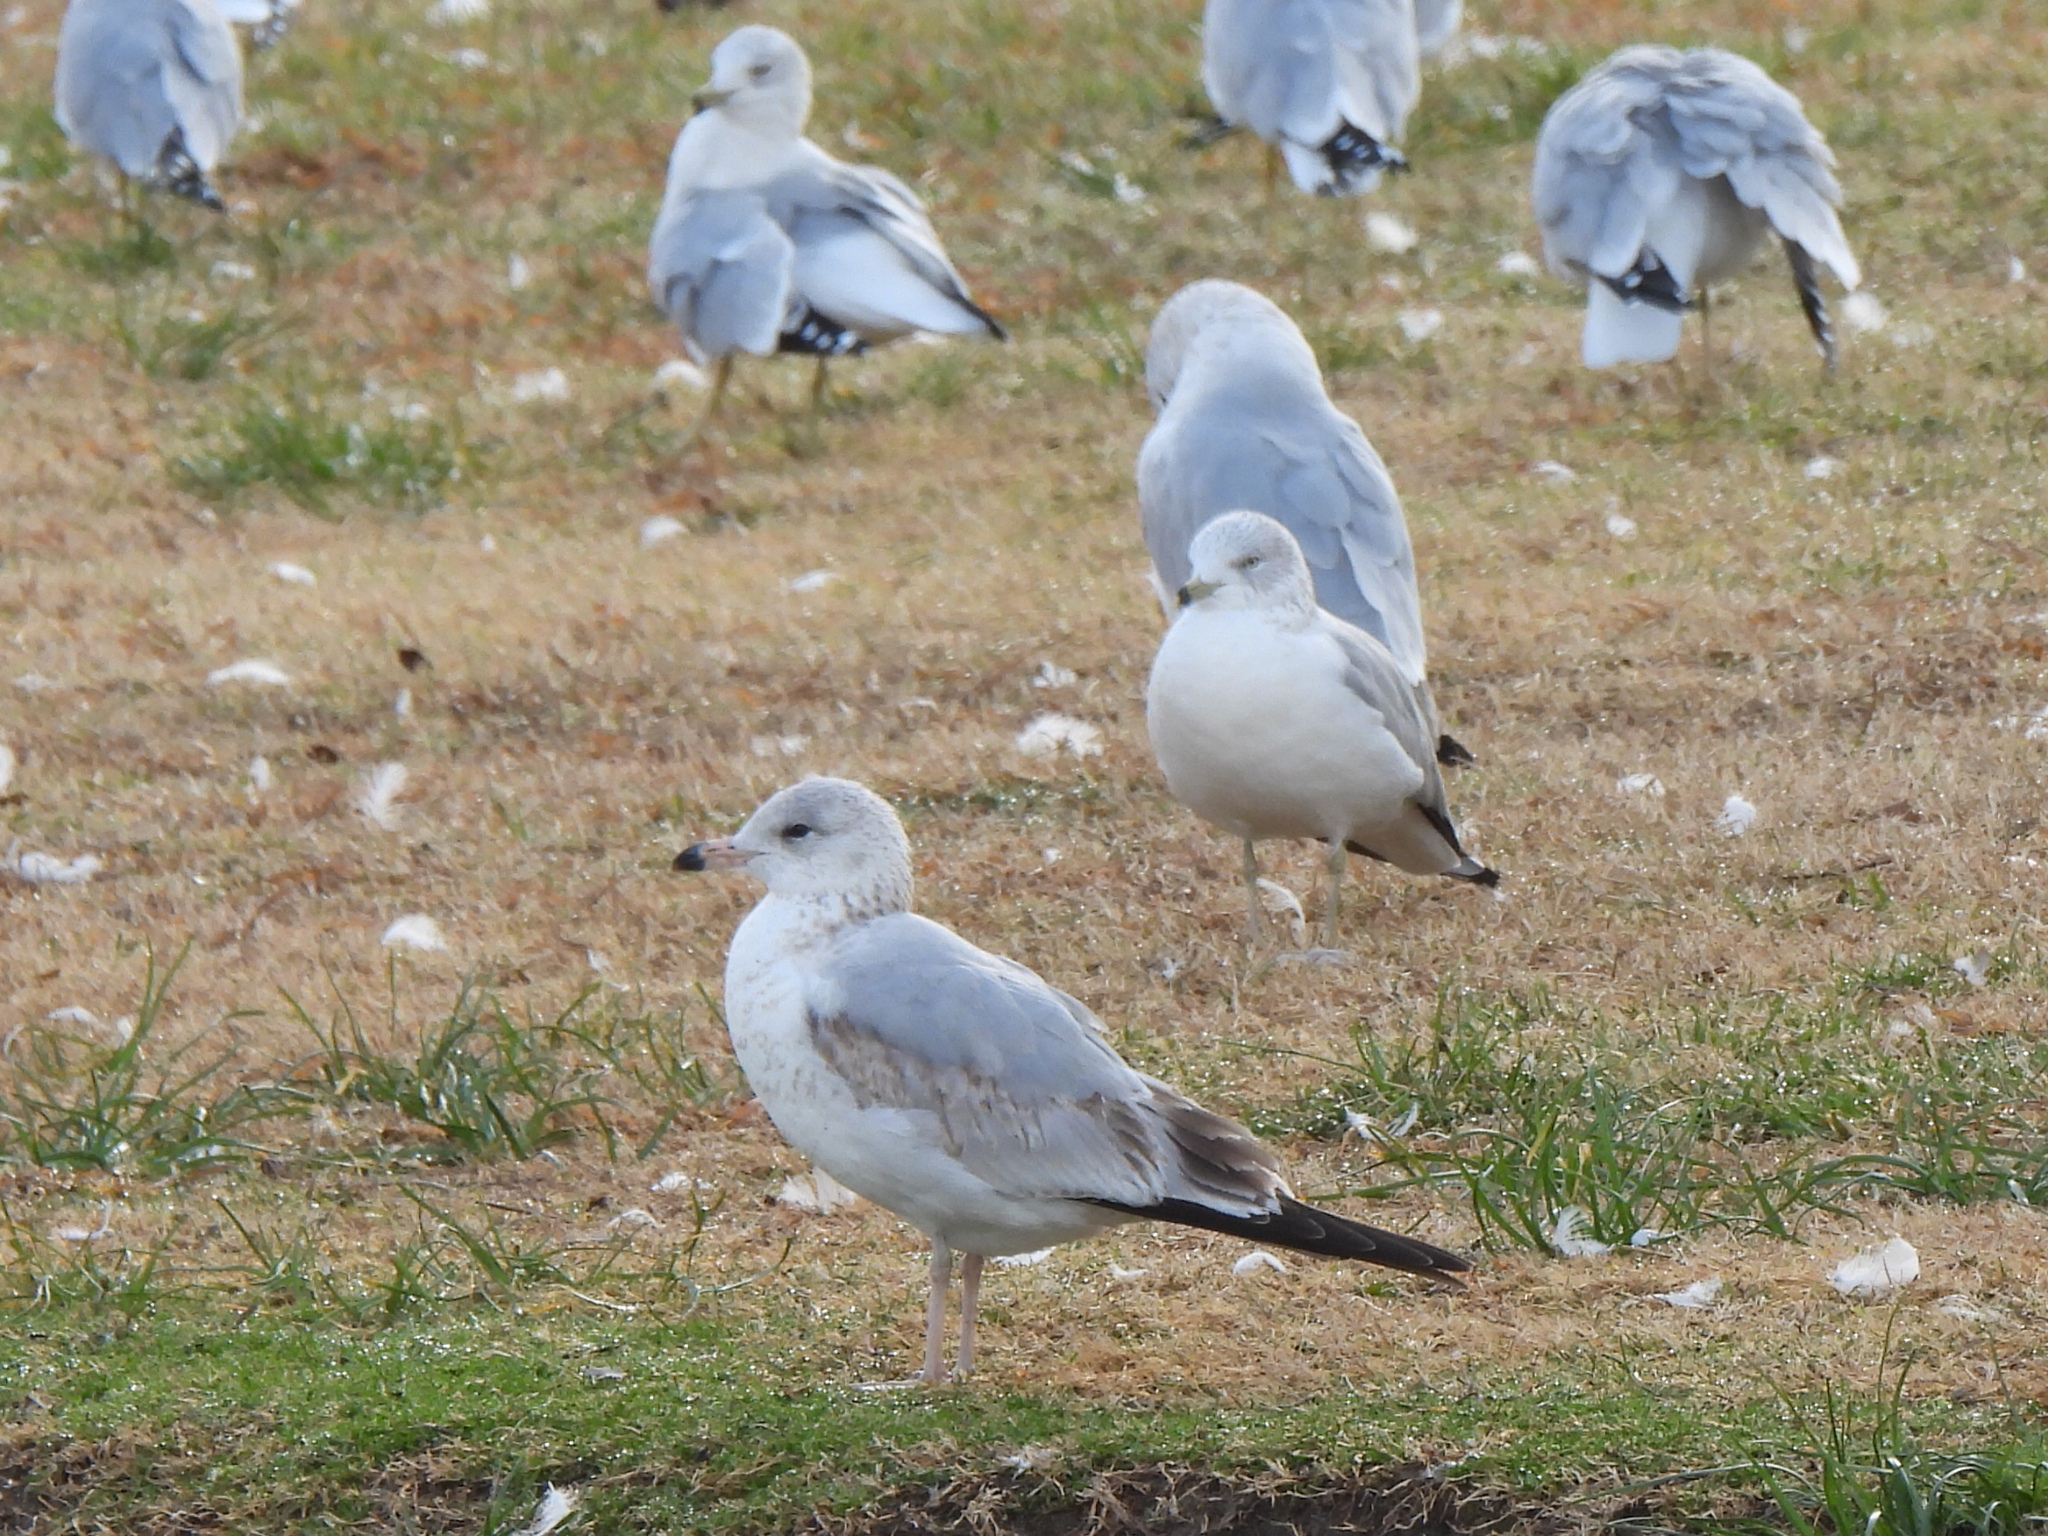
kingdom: Animalia
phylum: Chordata
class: Aves
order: Charadriiformes
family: Laridae
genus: Larus
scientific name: Larus delawarensis
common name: Ring-billed gull
